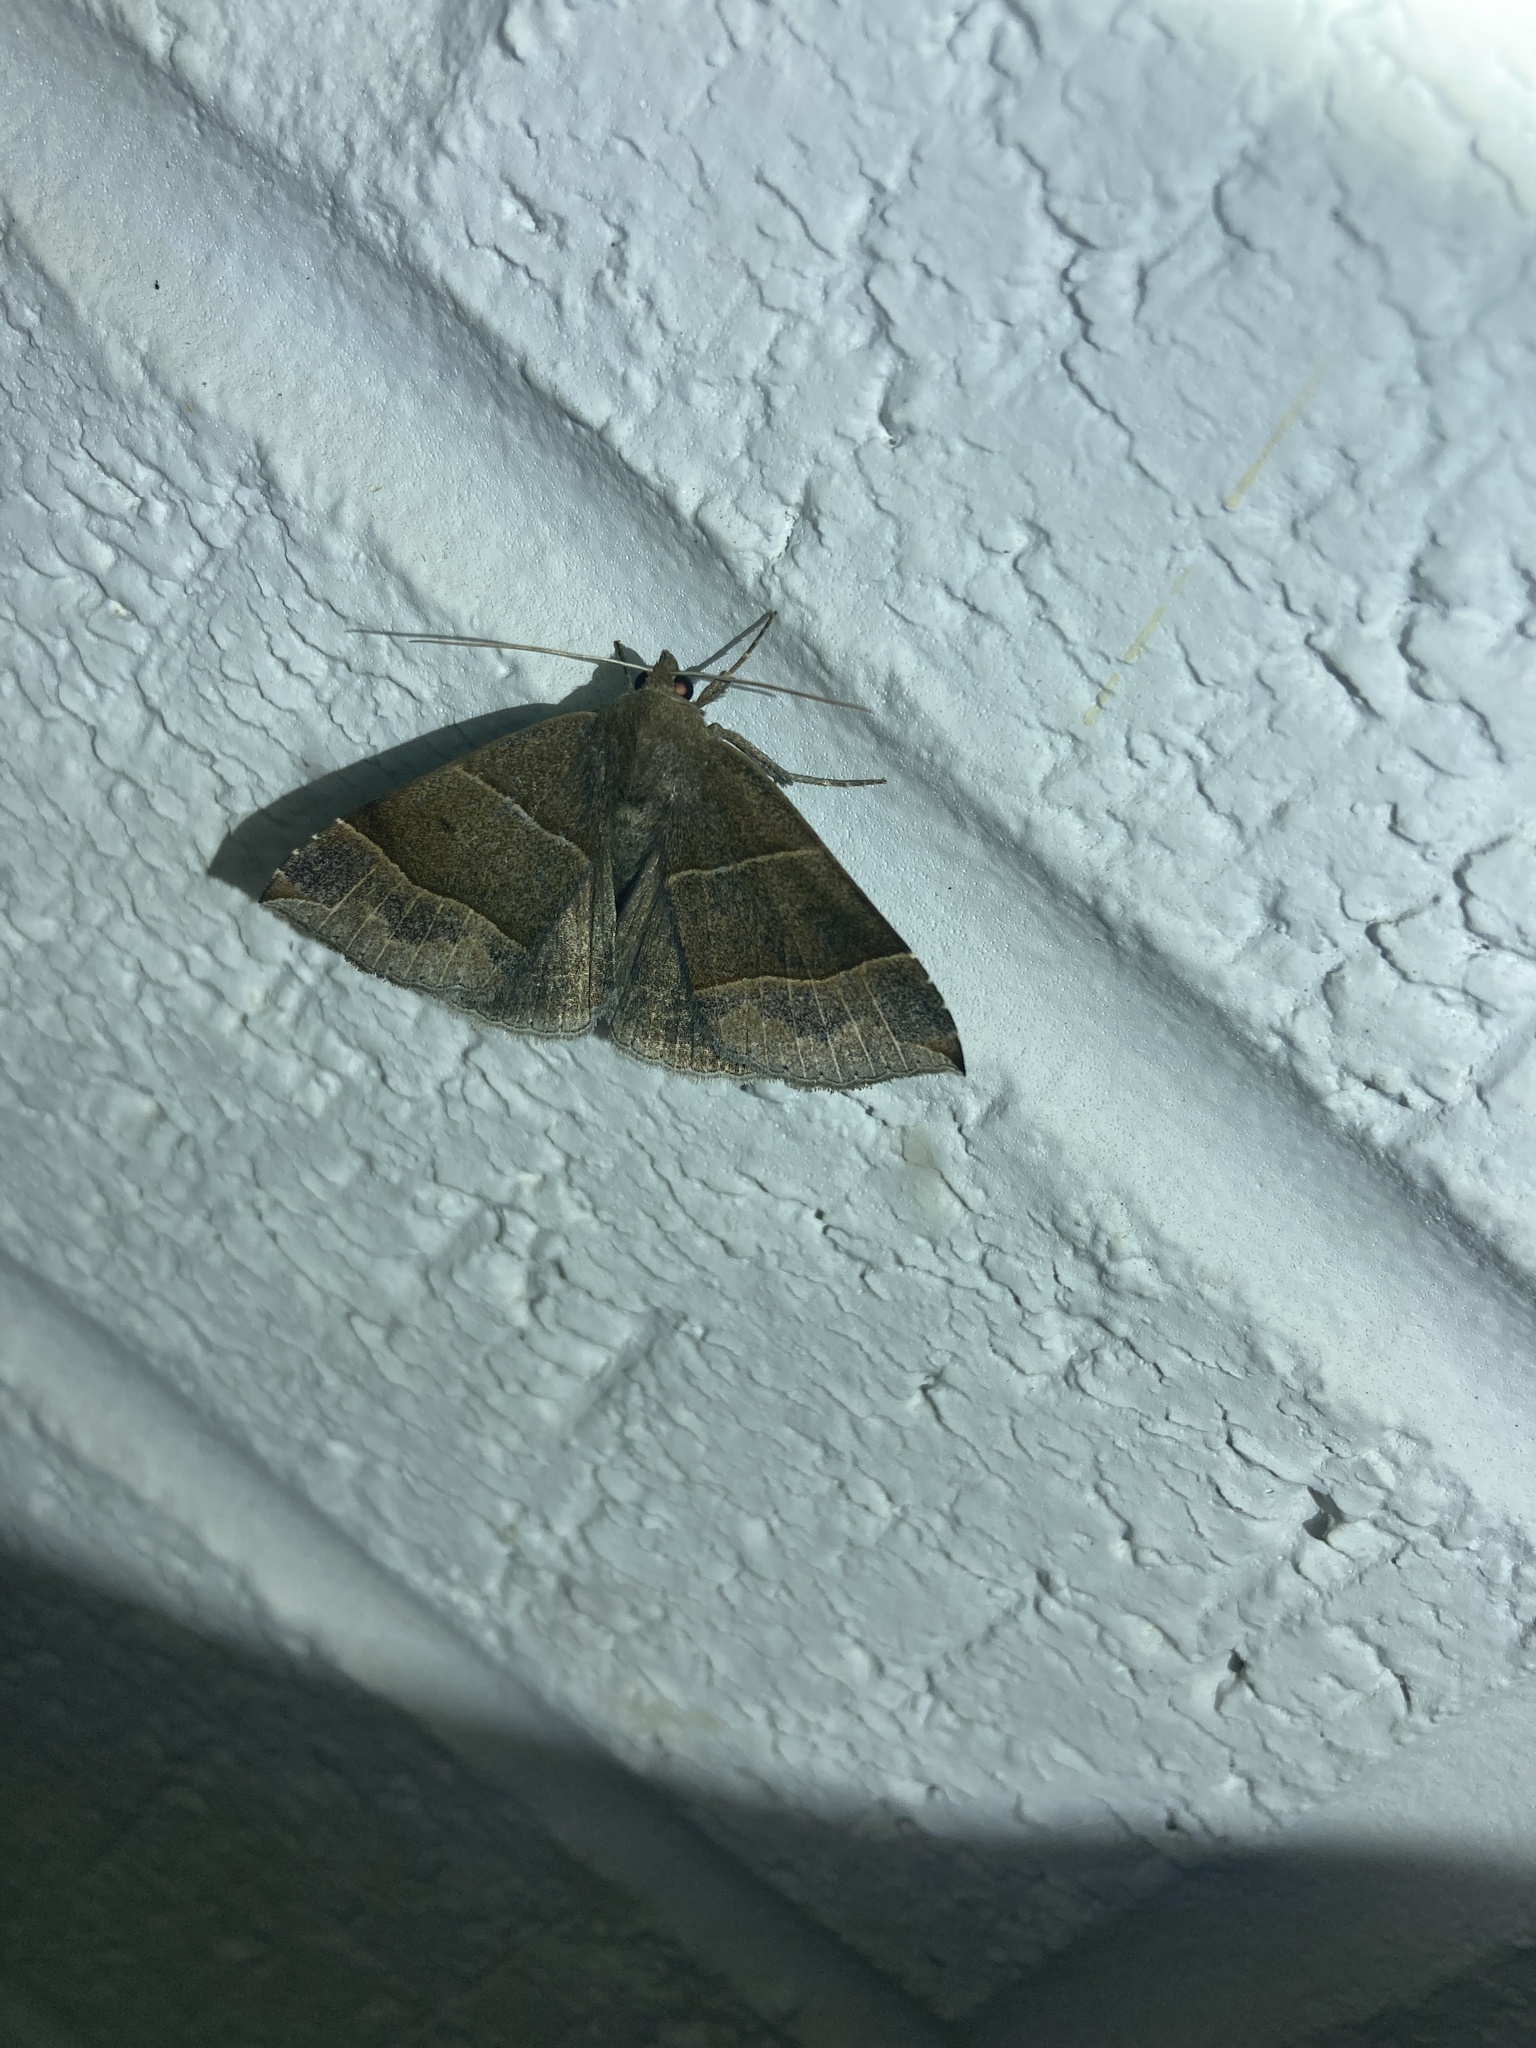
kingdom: Animalia
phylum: Arthropoda
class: Insecta
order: Lepidoptera
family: Erebidae
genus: Parallelia
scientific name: Parallelia bistriaris
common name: Maple looper moth
